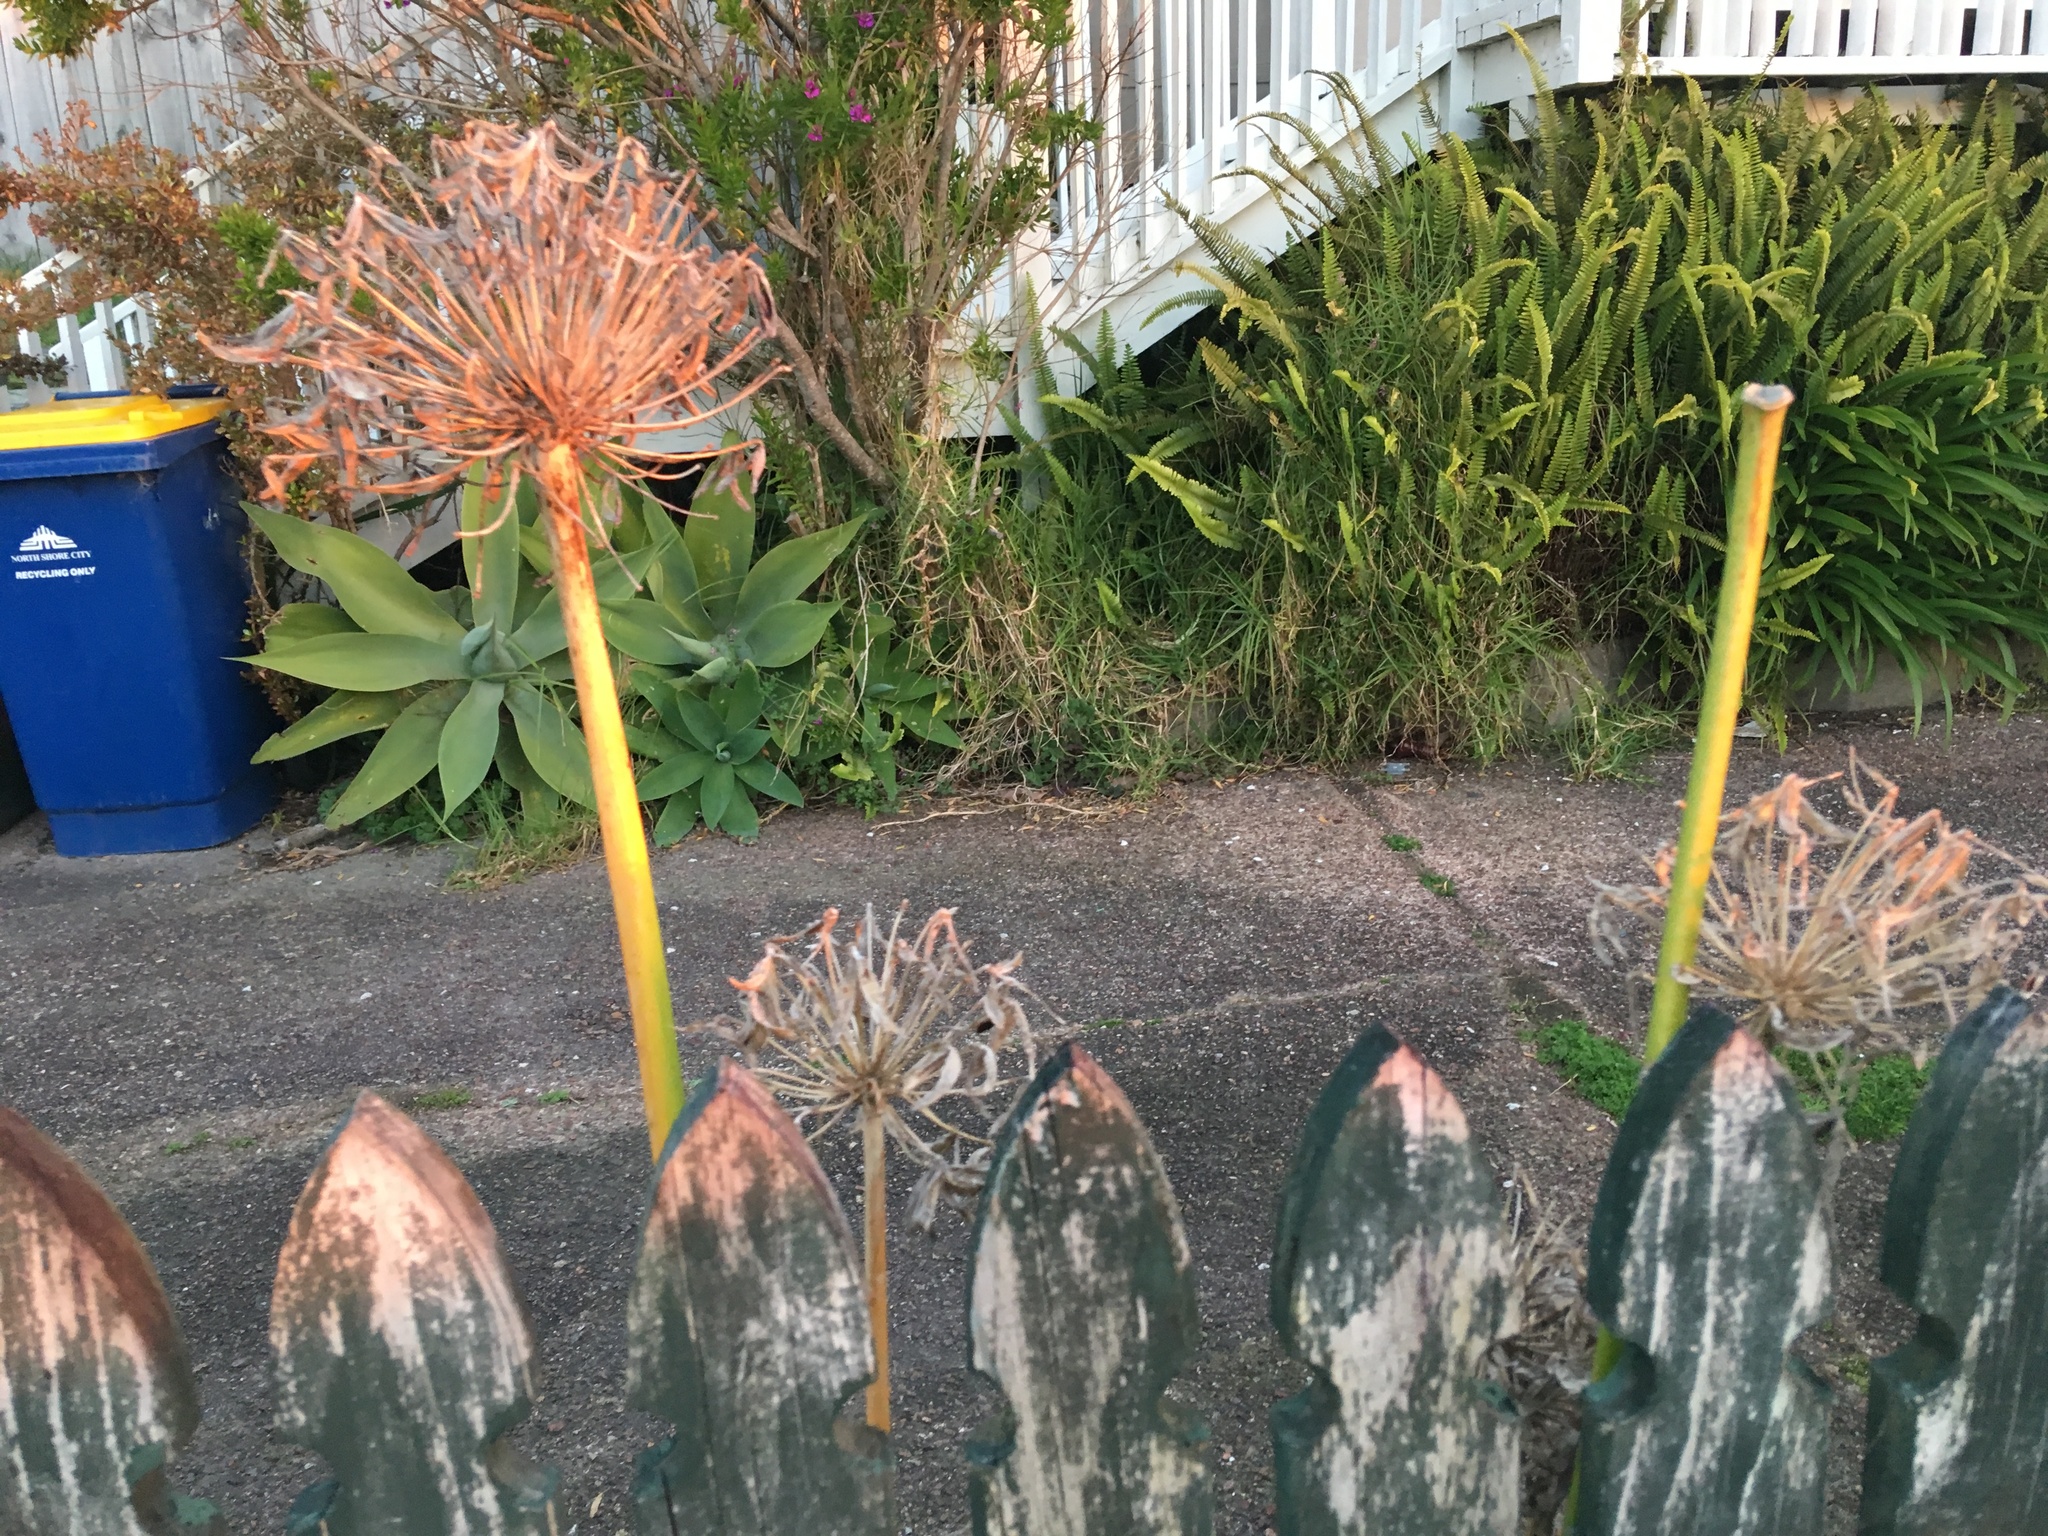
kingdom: Plantae
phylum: Tracheophyta
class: Liliopsida
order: Asparagales
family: Amaryllidaceae
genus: Agapanthus
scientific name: Agapanthus praecox
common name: African-lily
